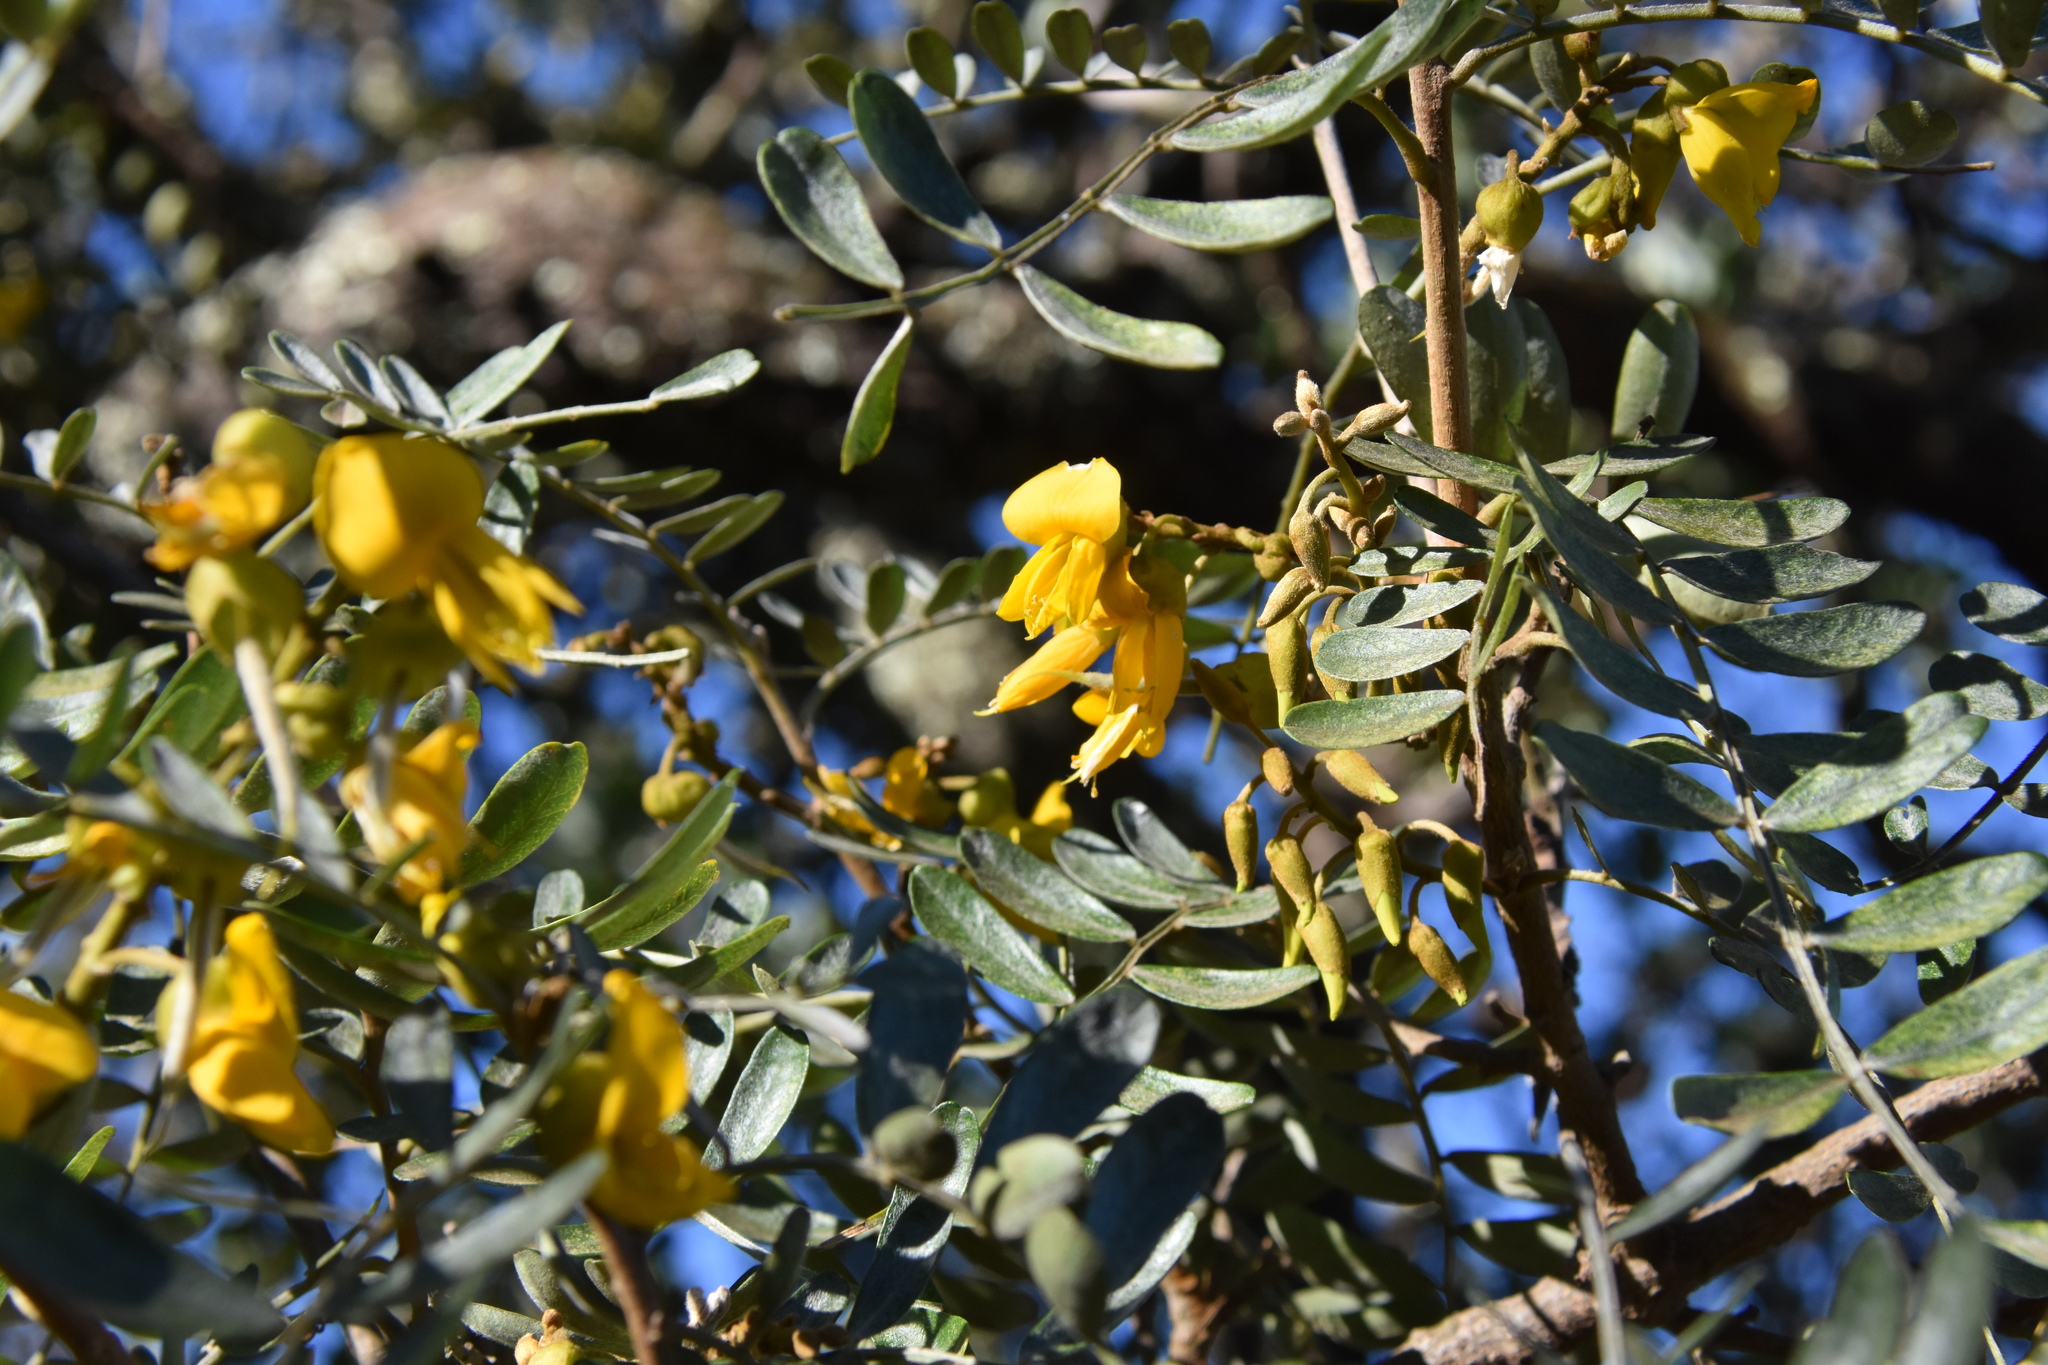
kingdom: Plantae
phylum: Tracheophyta
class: Magnoliopsida
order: Fabales
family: Fabaceae
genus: Sophora
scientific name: Sophora chrysophylla
